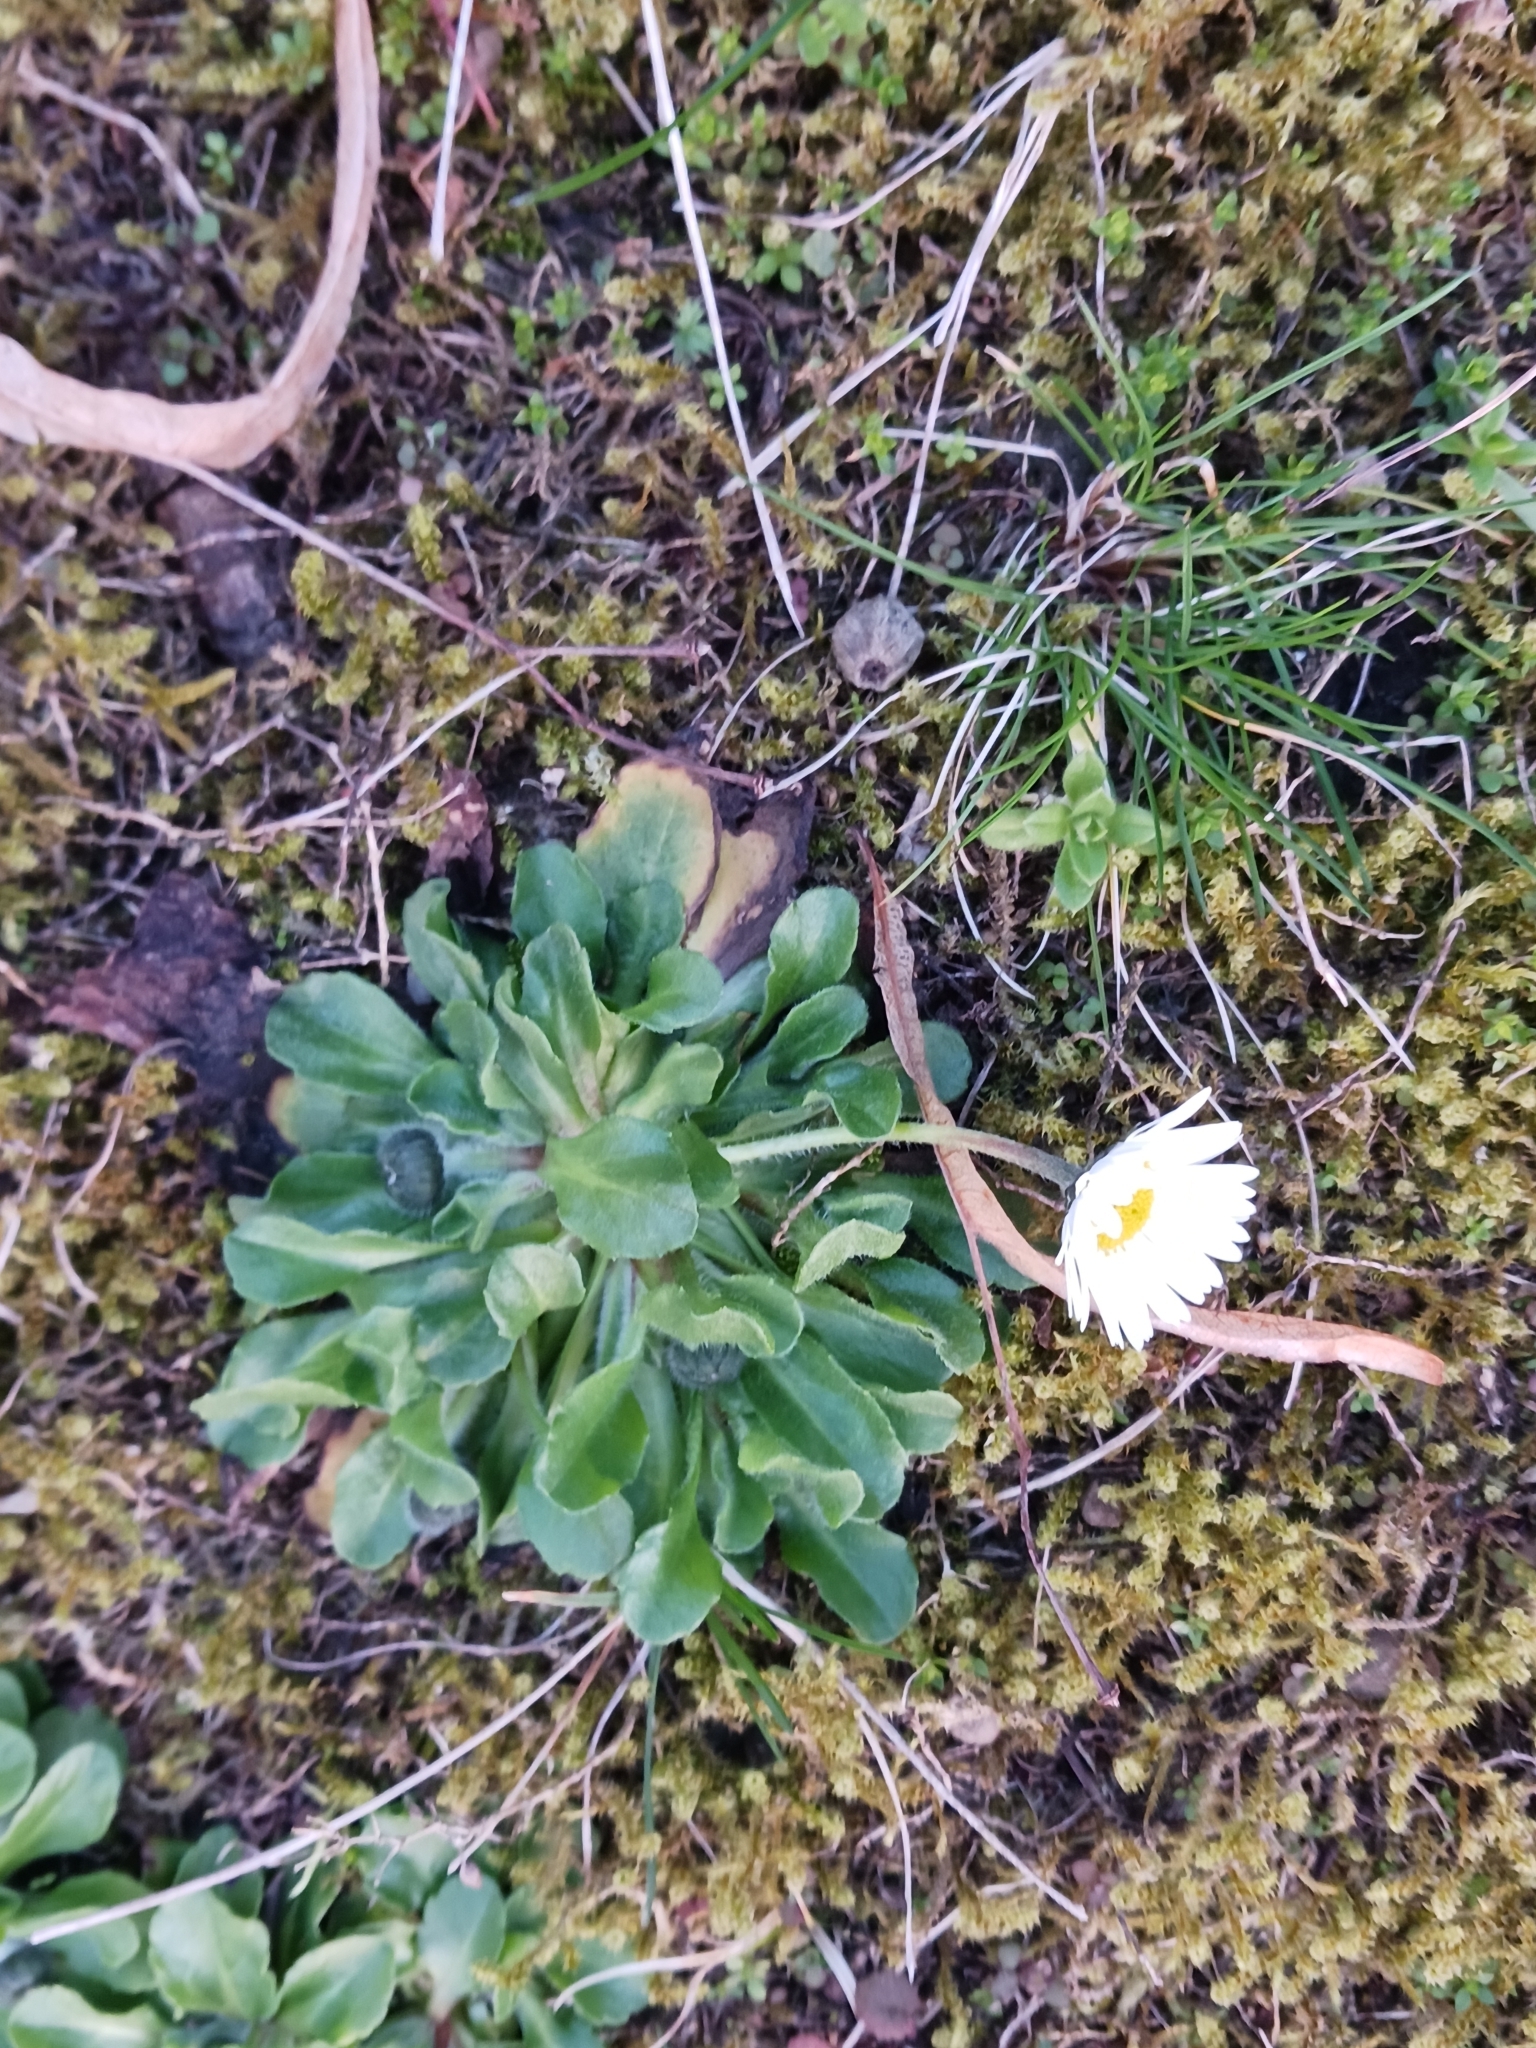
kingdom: Plantae
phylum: Tracheophyta
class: Magnoliopsida
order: Asterales
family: Asteraceae
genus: Bellis
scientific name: Bellis perennis
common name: Lawndaisy
